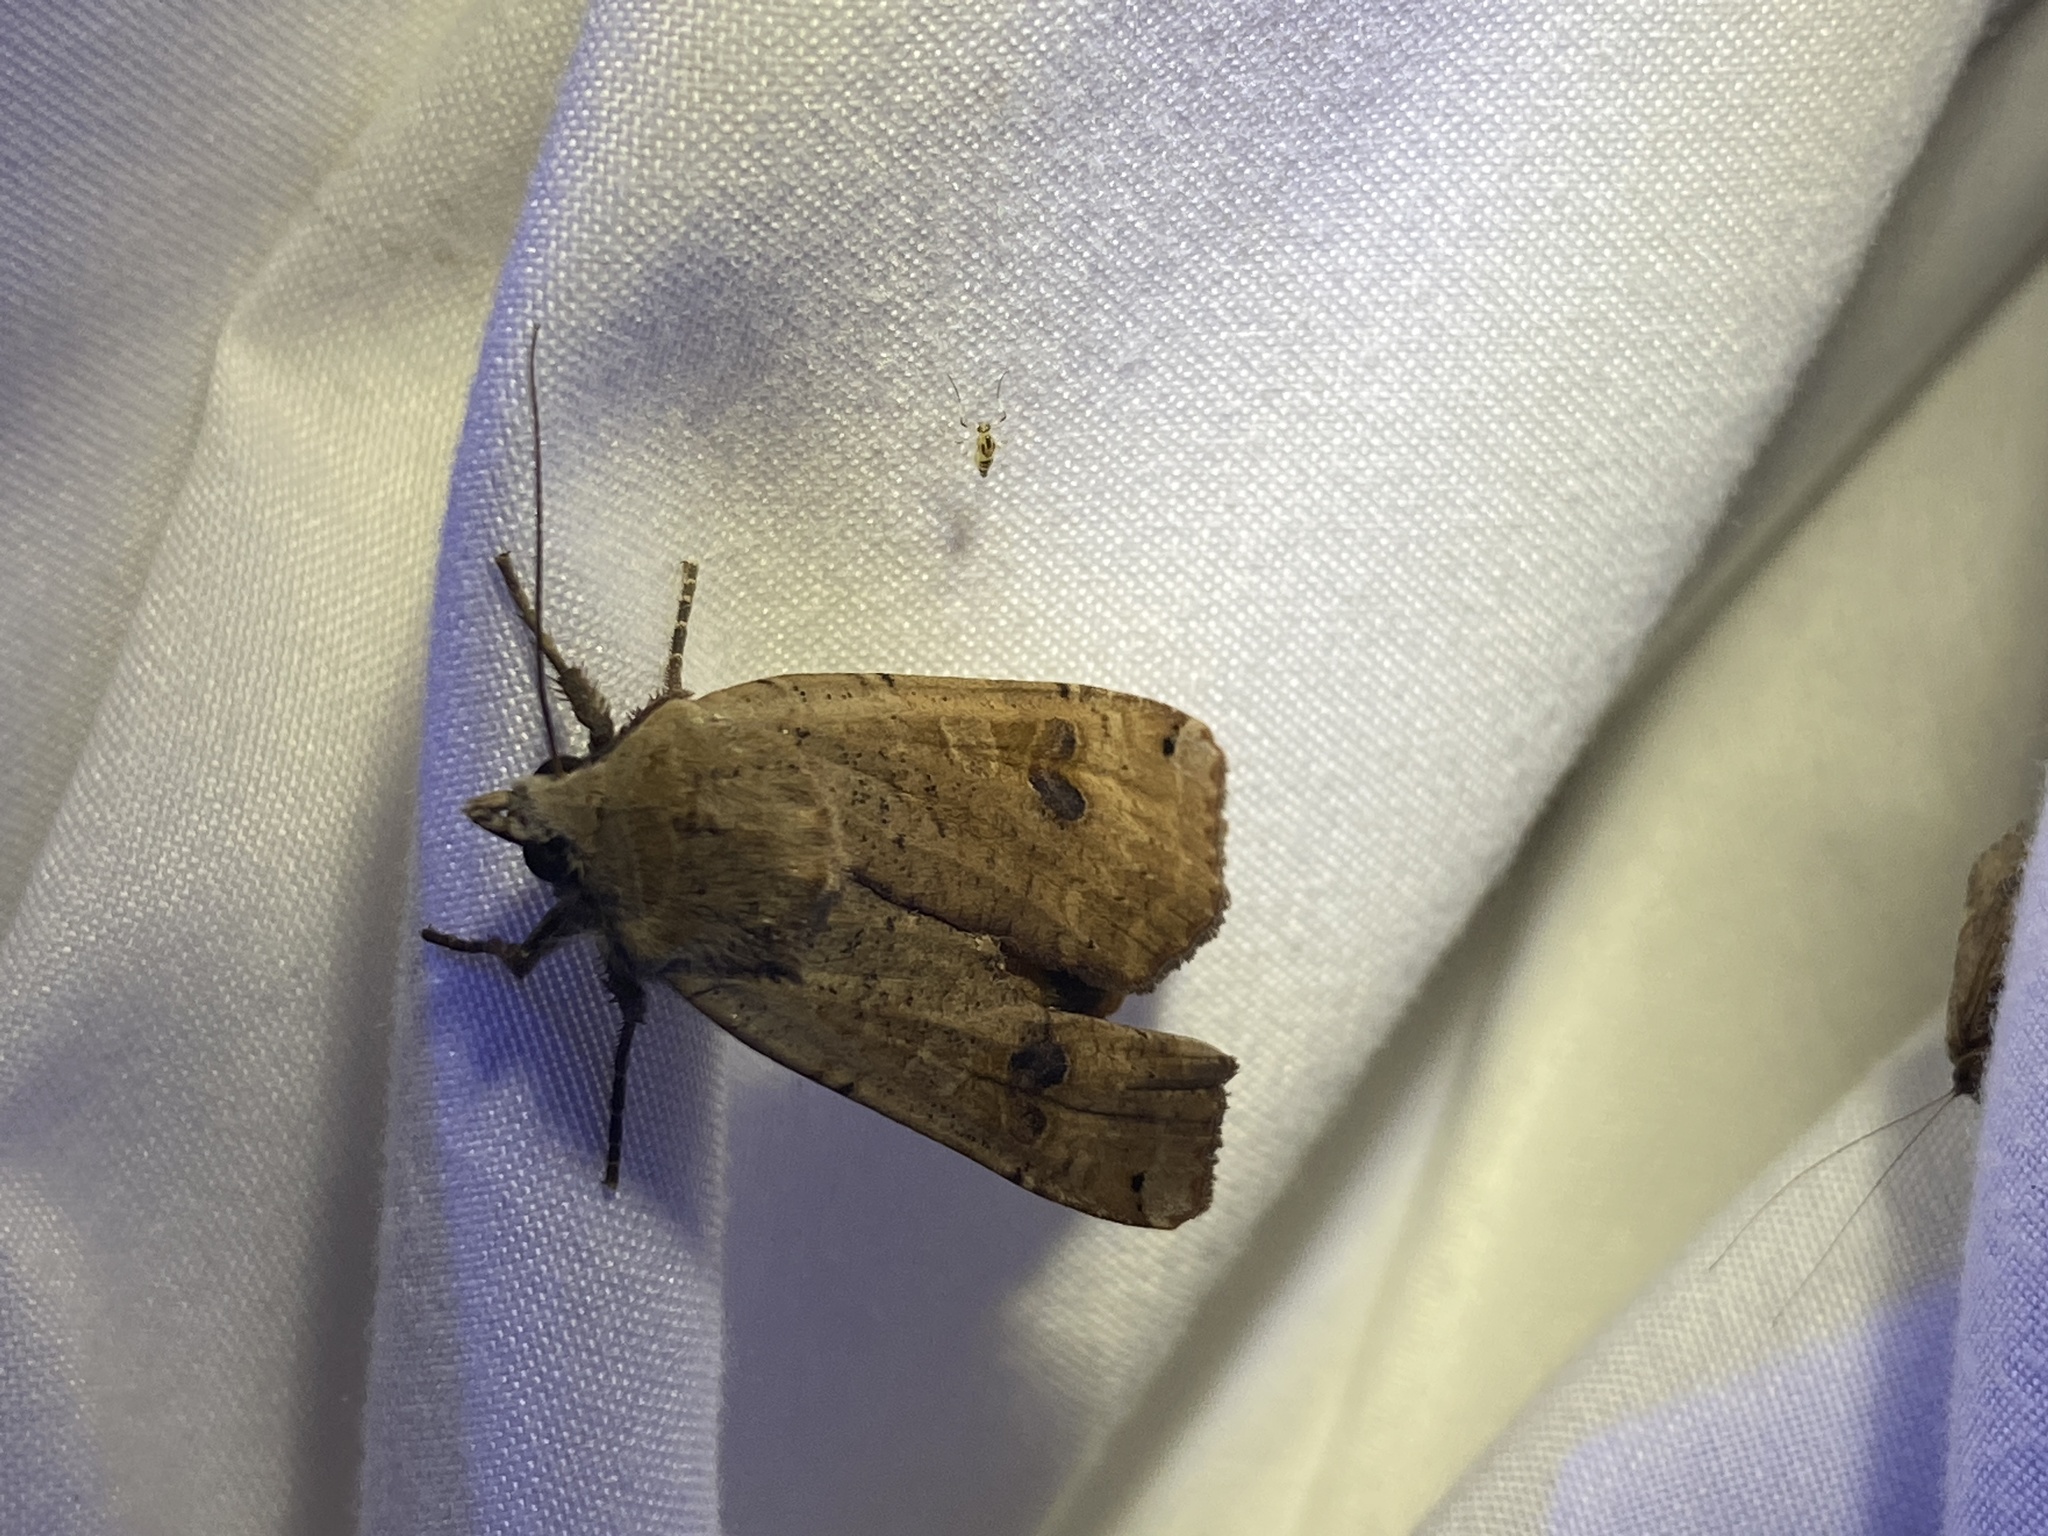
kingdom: Animalia
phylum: Arthropoda
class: Insecta
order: Lepidoptera
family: Noctuidae
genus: Noctua
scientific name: Noctua pronuba
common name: Large yellow underwing
